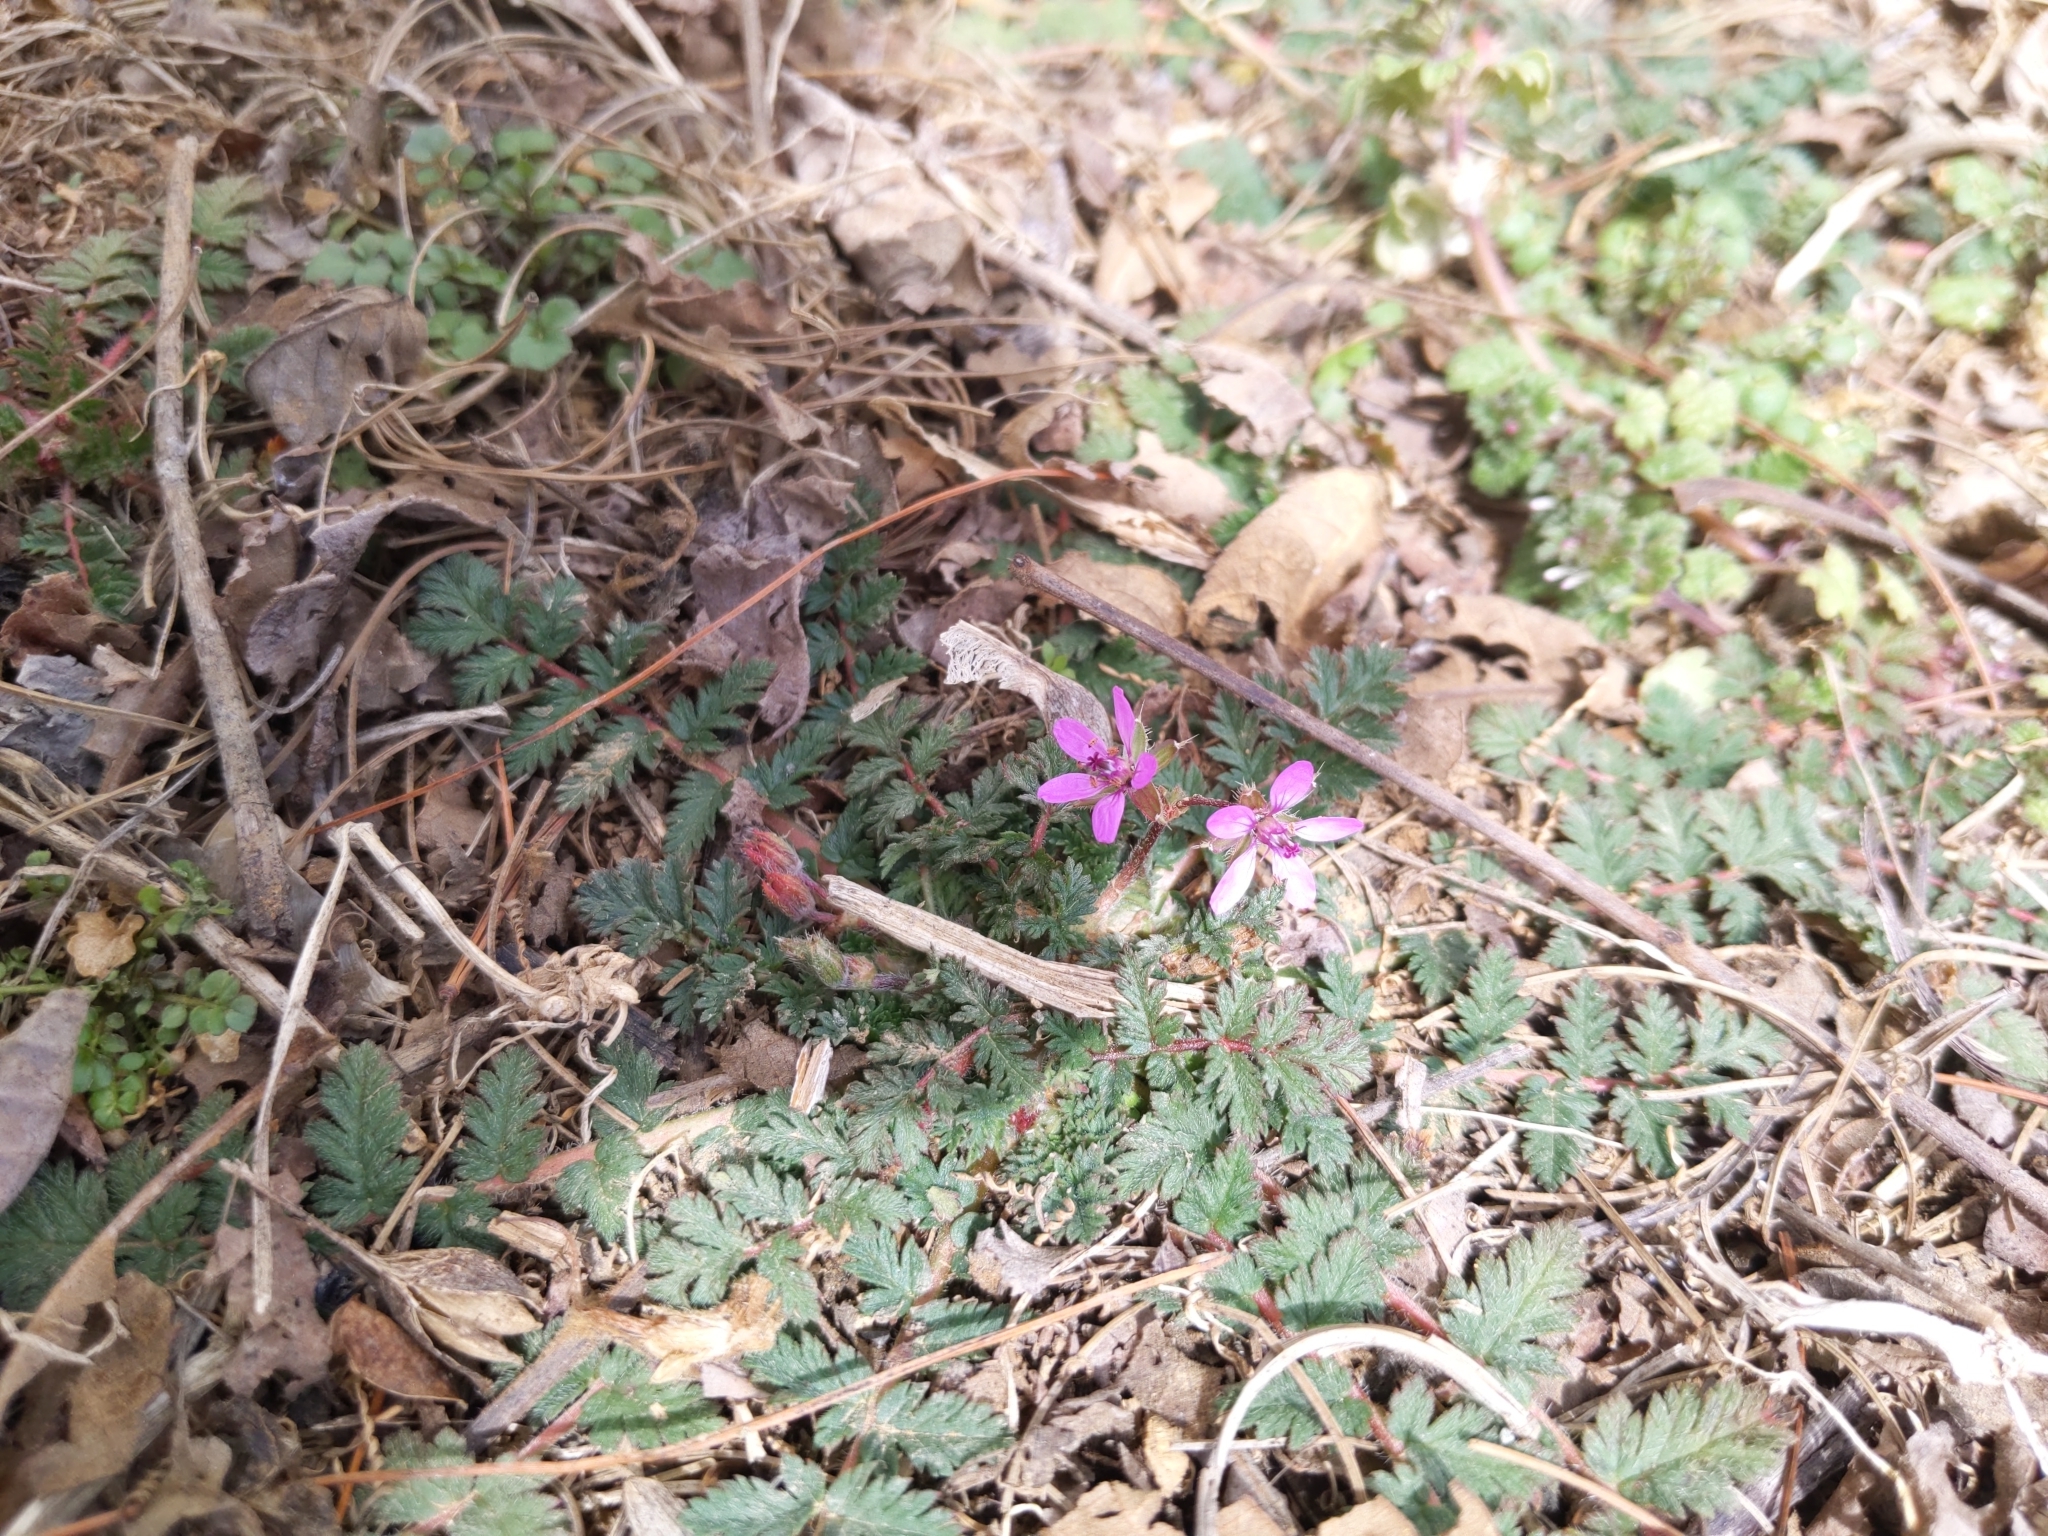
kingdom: Plantae
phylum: Tracheophyta
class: Magnoliopsida
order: Geraniales
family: Geraniaceae
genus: Erodium
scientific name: Erodium cicutarium
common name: Common stork's-bill
